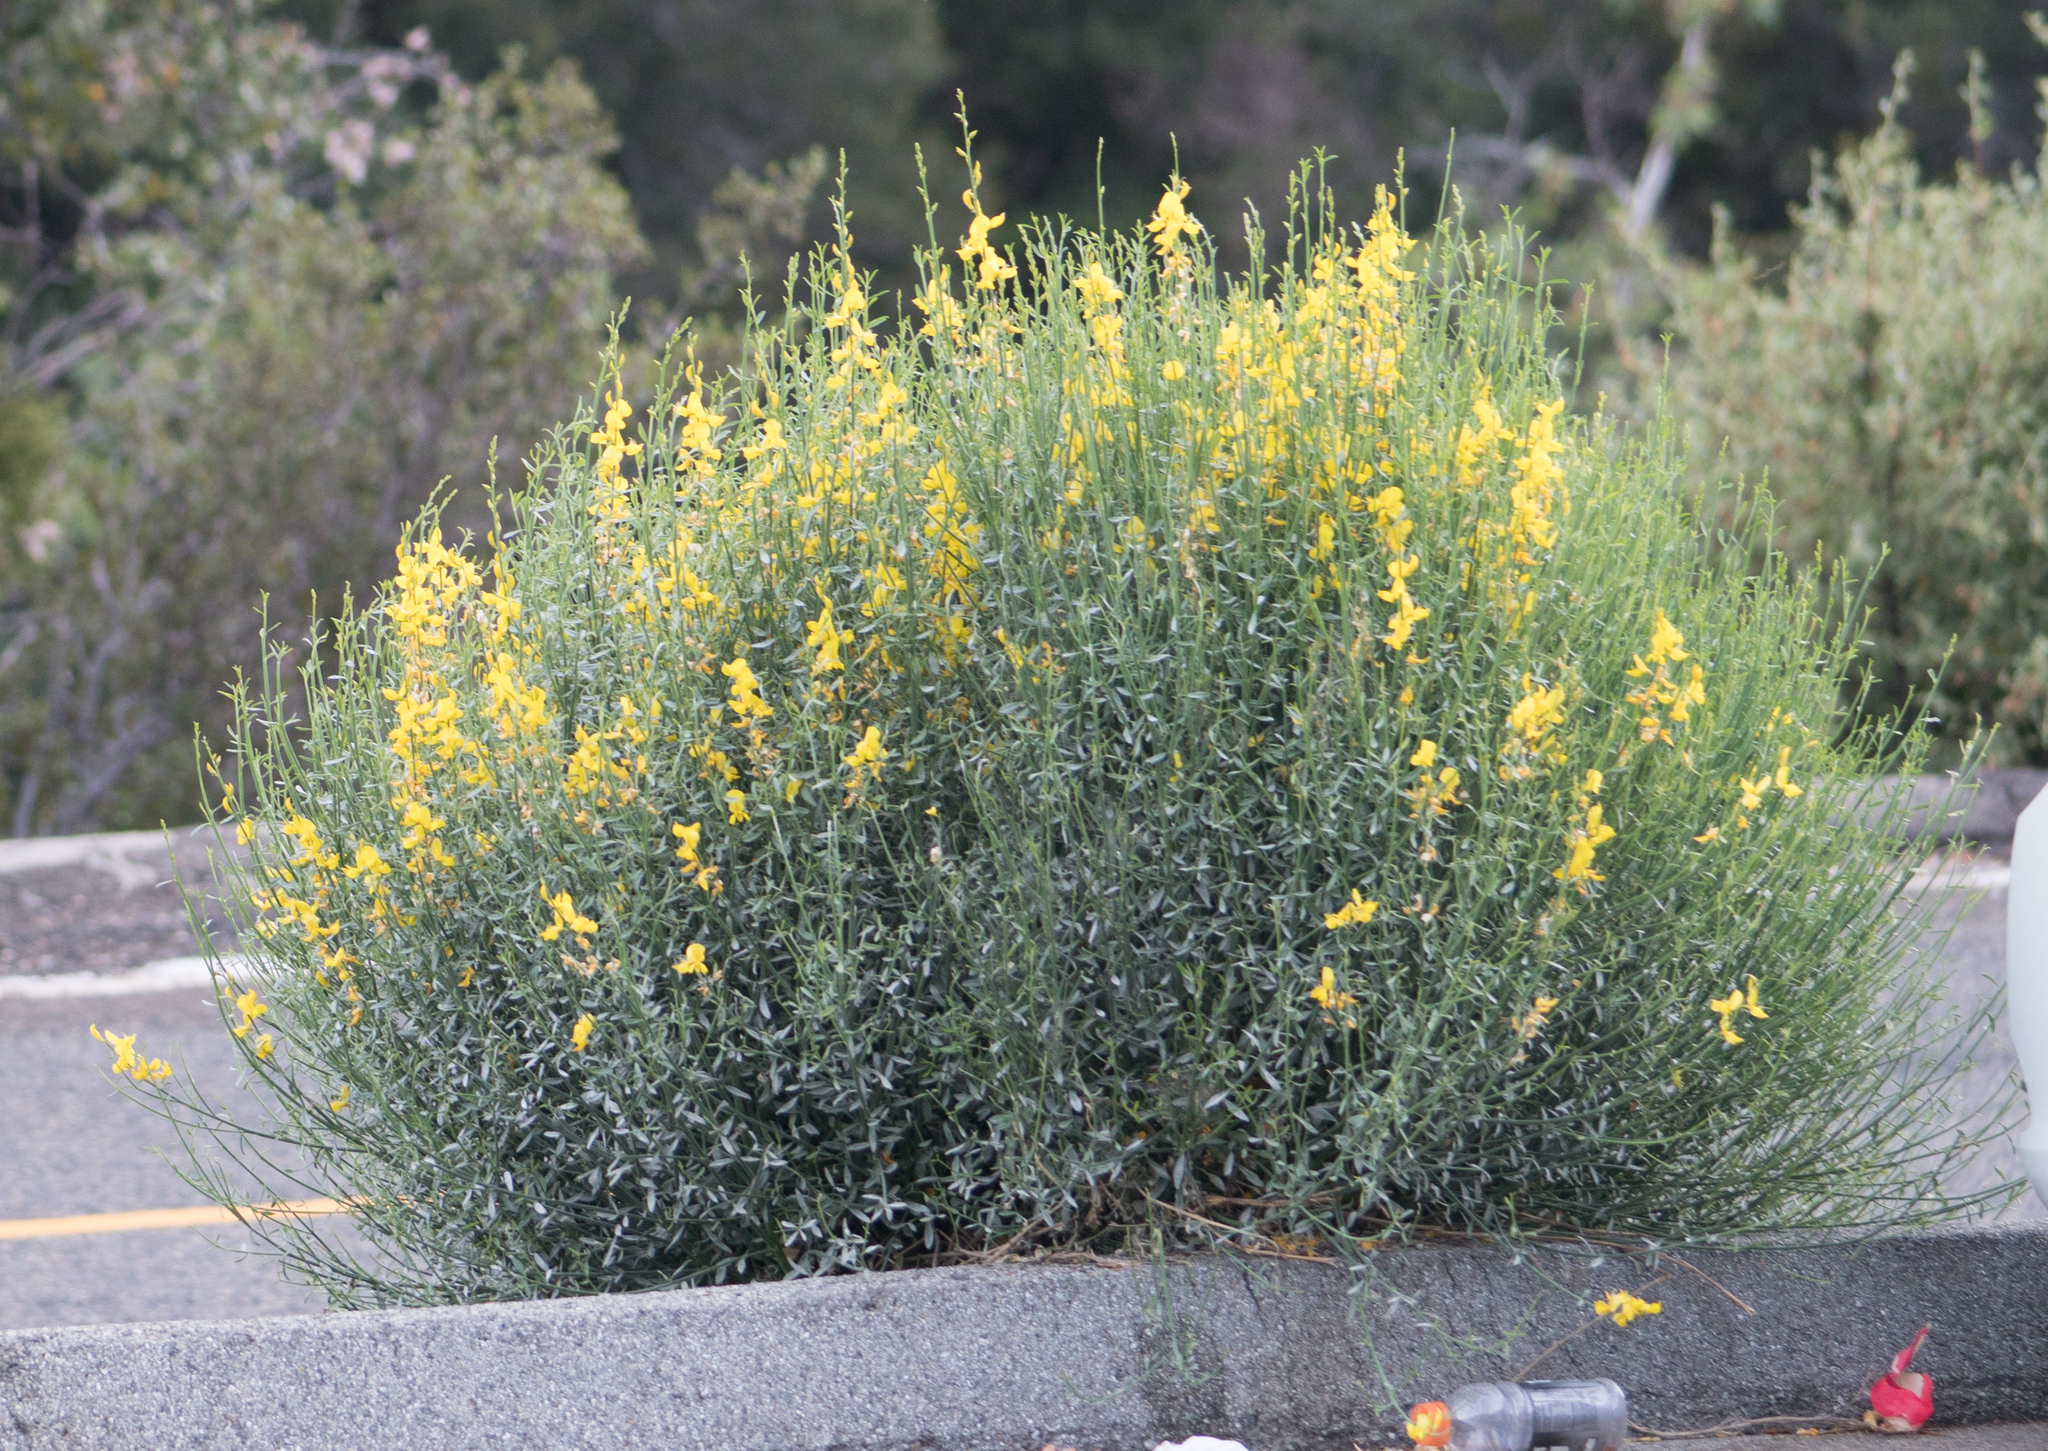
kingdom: Plantae
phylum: Tracheophyta
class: Magnoliopsida
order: Fabales
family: Fabaceae
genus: Spartium
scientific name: Spartium junceum
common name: Spanish broom
